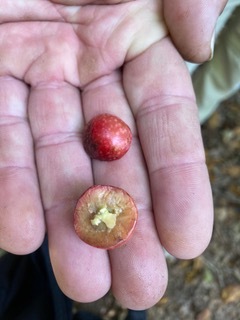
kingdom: Animalia
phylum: Arthropoda
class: Insecta
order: Hymenoptera
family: Cynipidae
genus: Amphibolips
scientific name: Amphibolips
